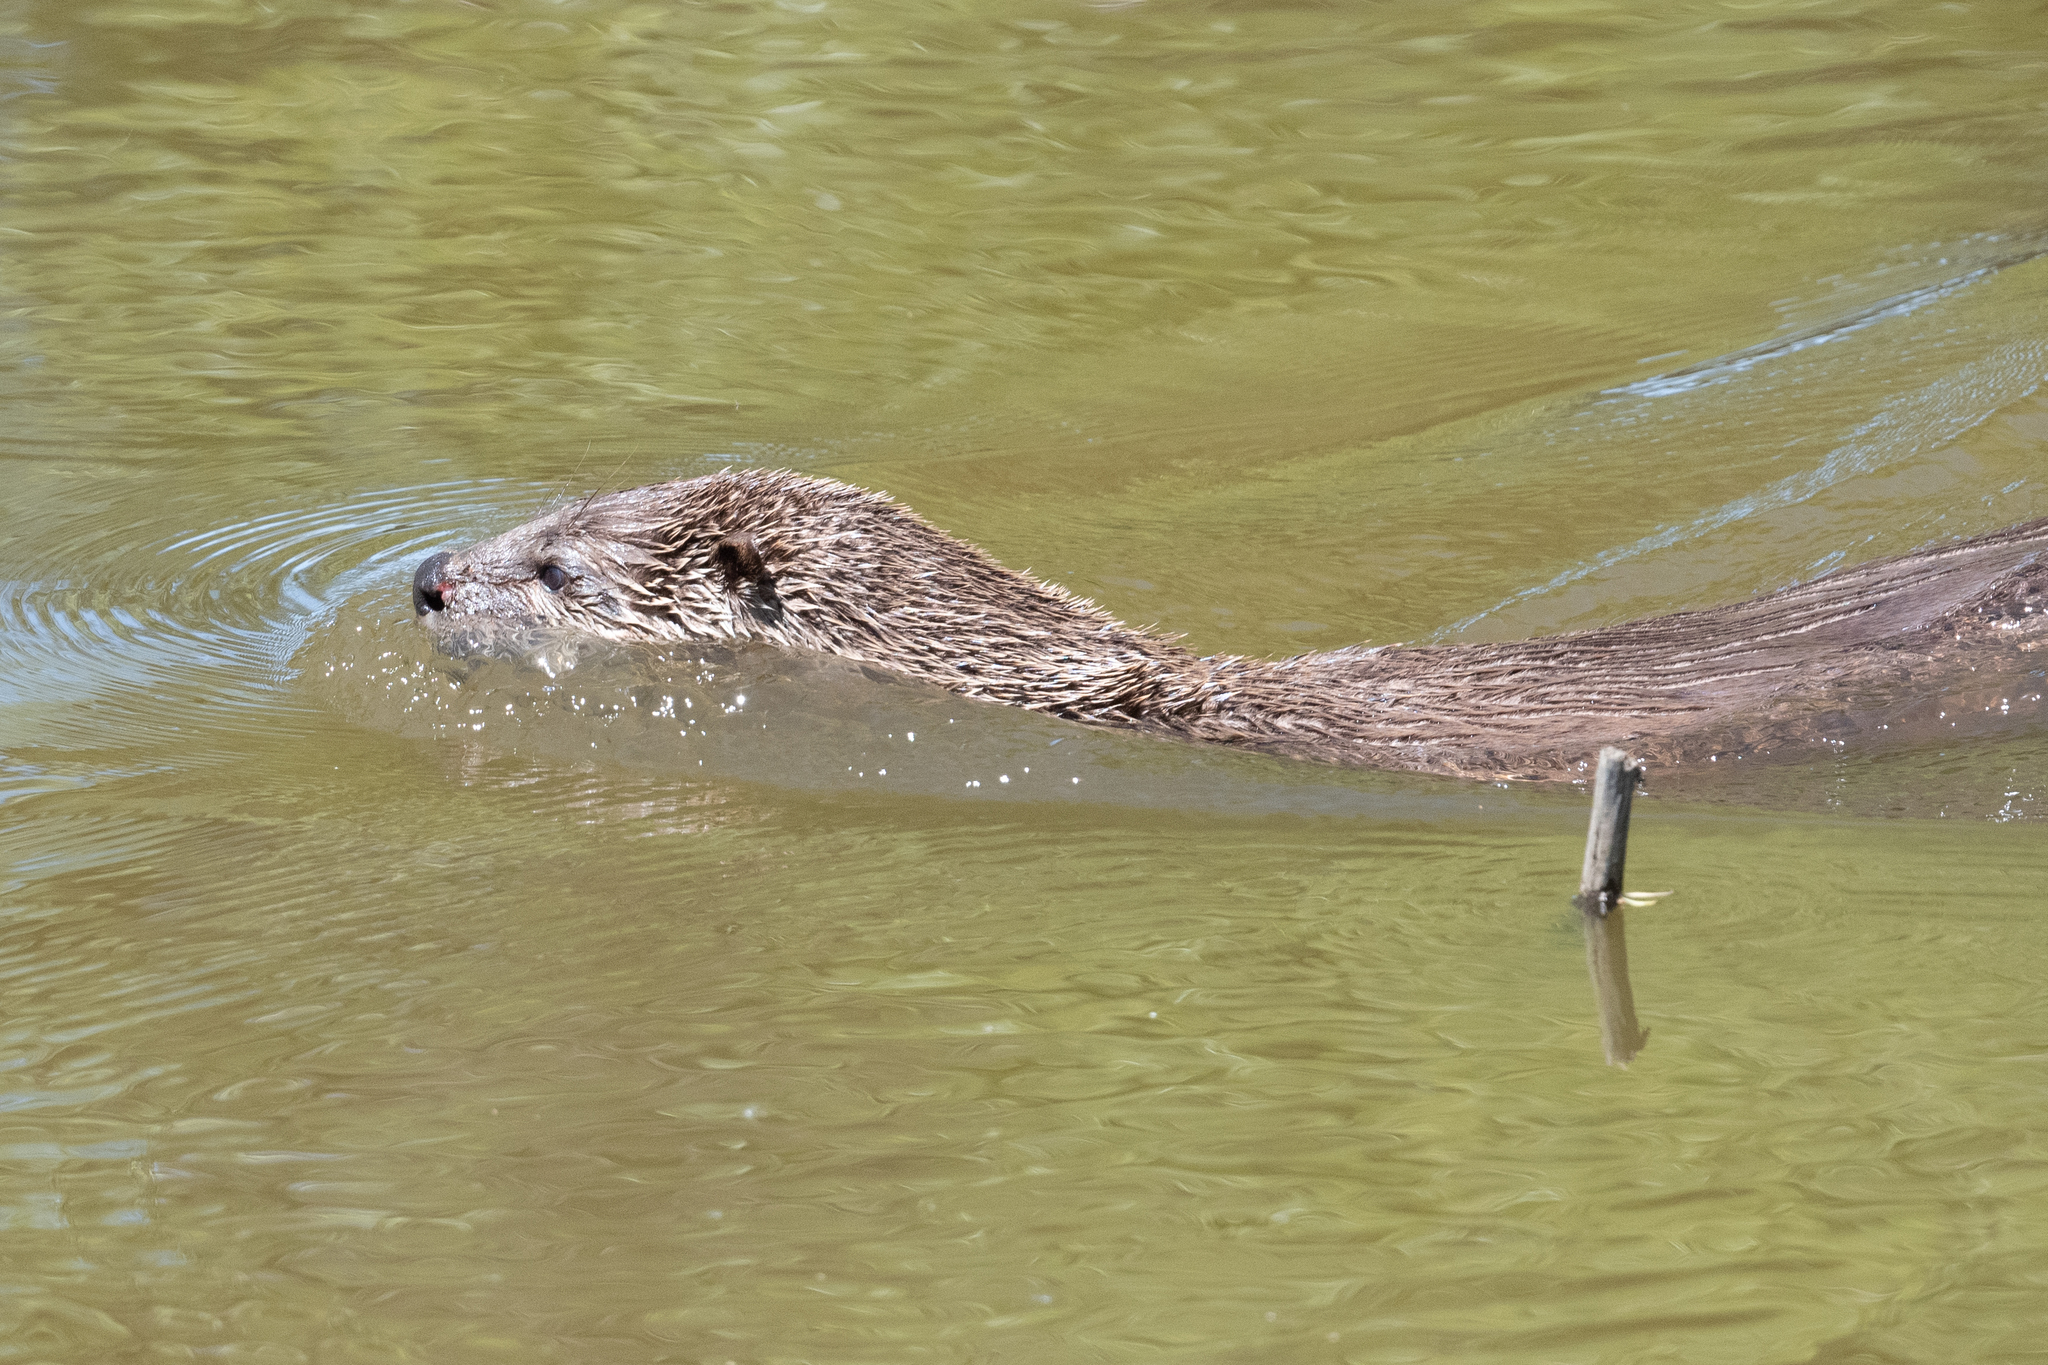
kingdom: Animalia
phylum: Chordata
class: Mammalia
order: Carnivora
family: Mustelidae
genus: Lontra
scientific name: Lontra canadensis
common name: North american river otter
